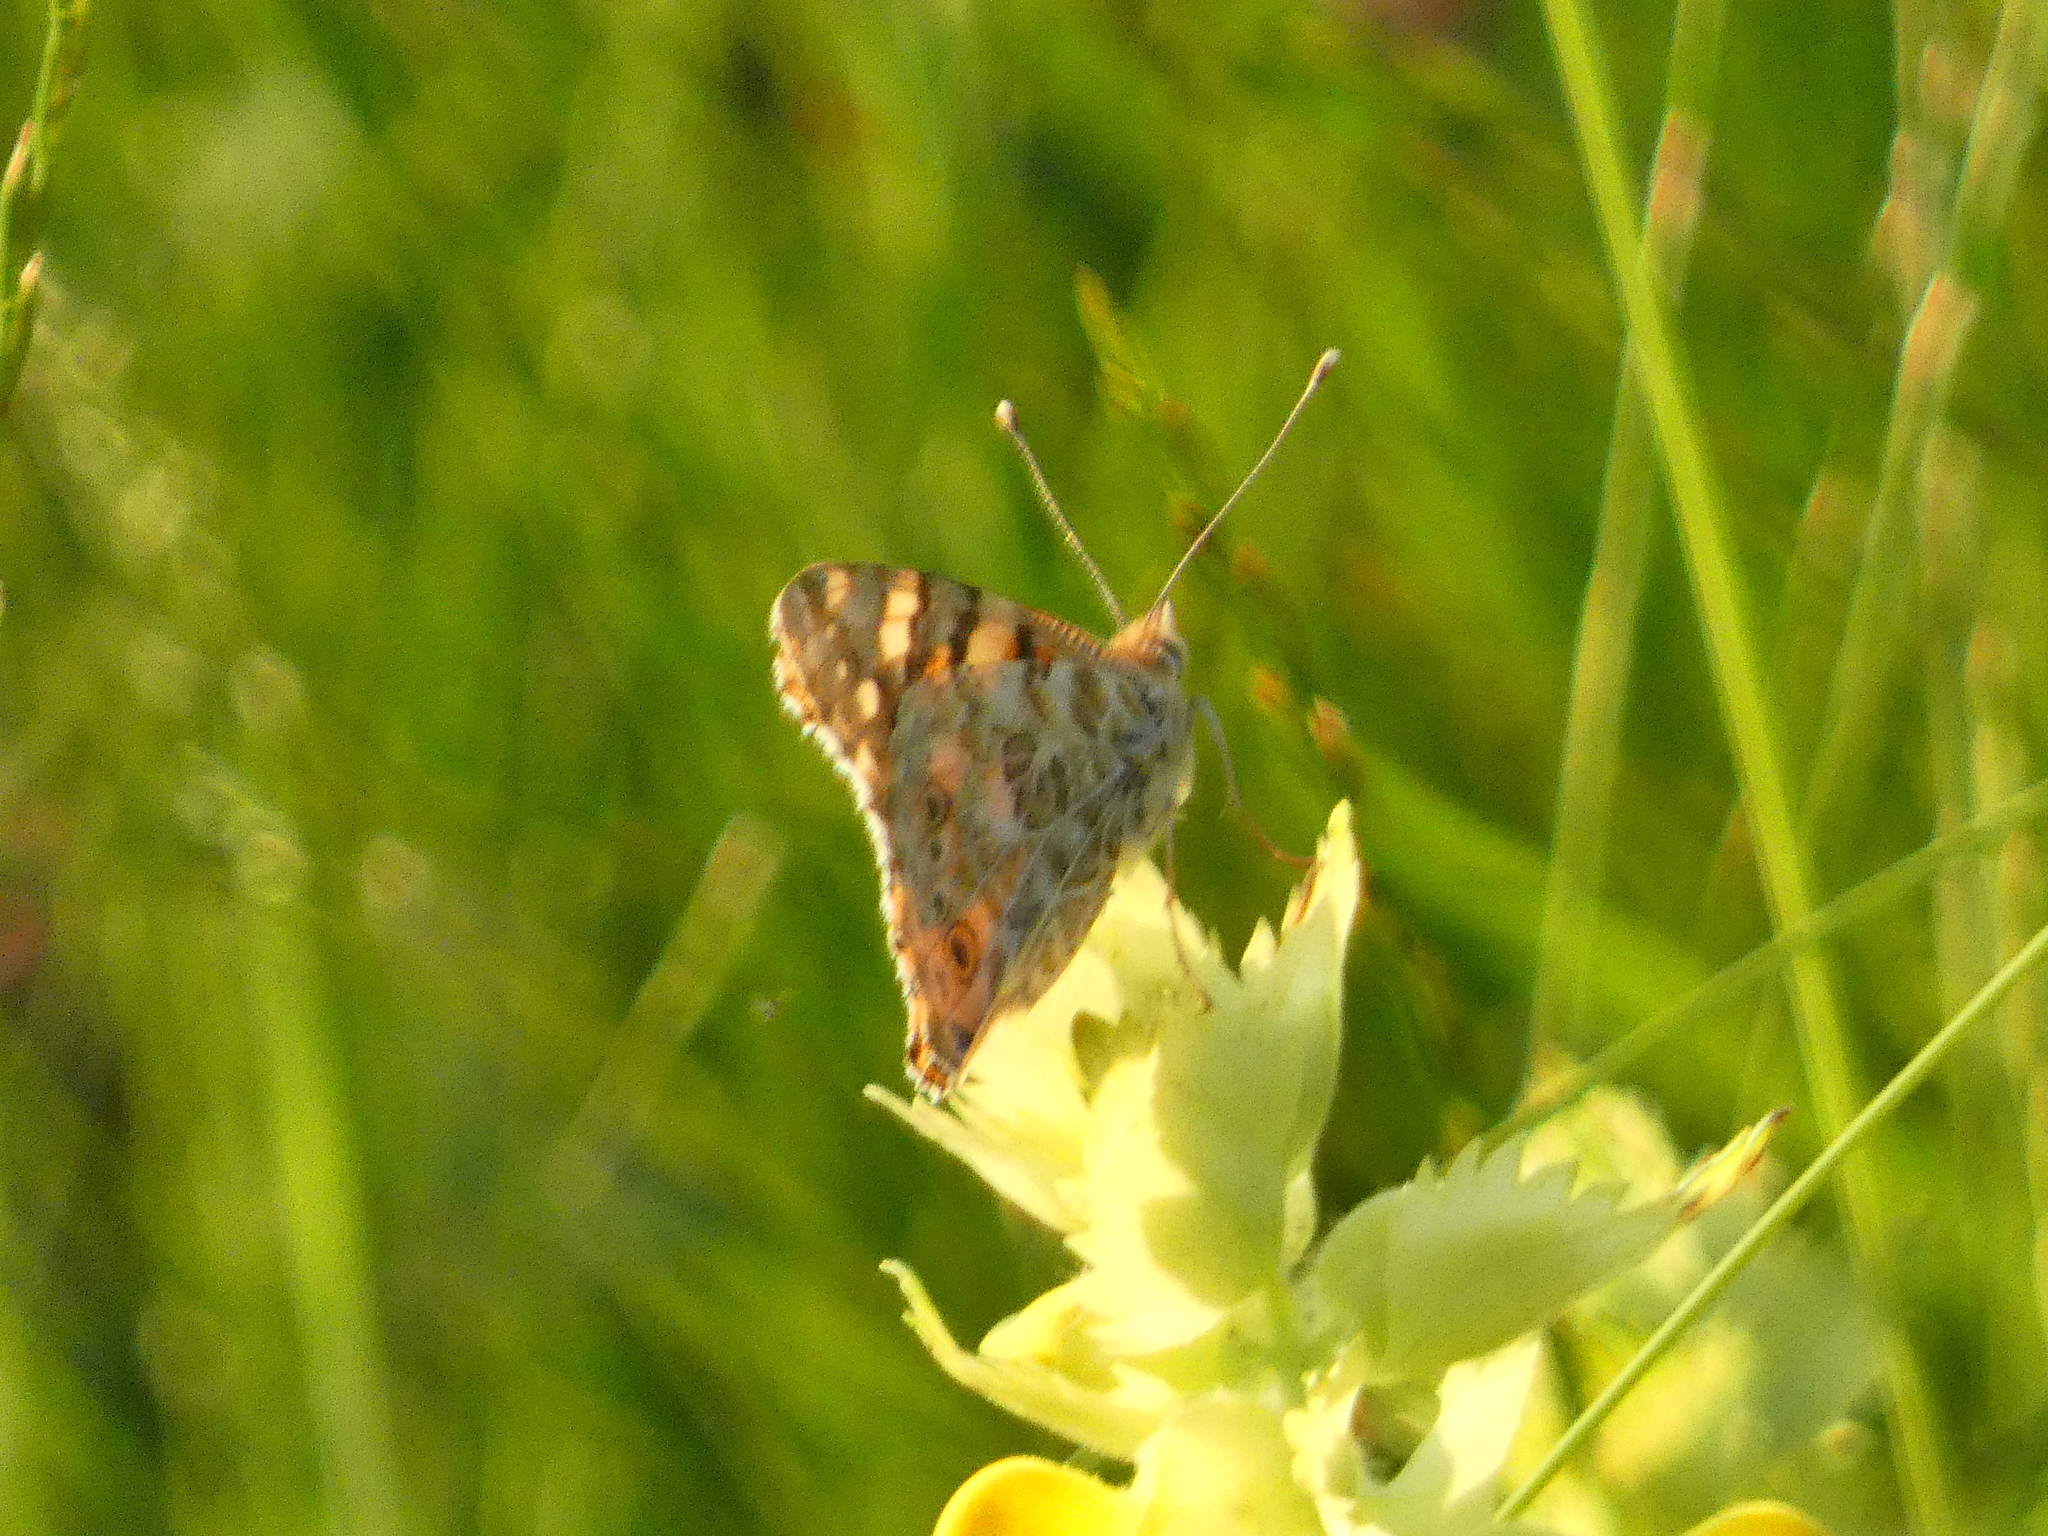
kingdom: Animalia
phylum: Arthropoda
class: Insecta
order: Lepidoptera
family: Nymphalidae
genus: Vanessa
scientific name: Vanessa cardui
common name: Painted lady
